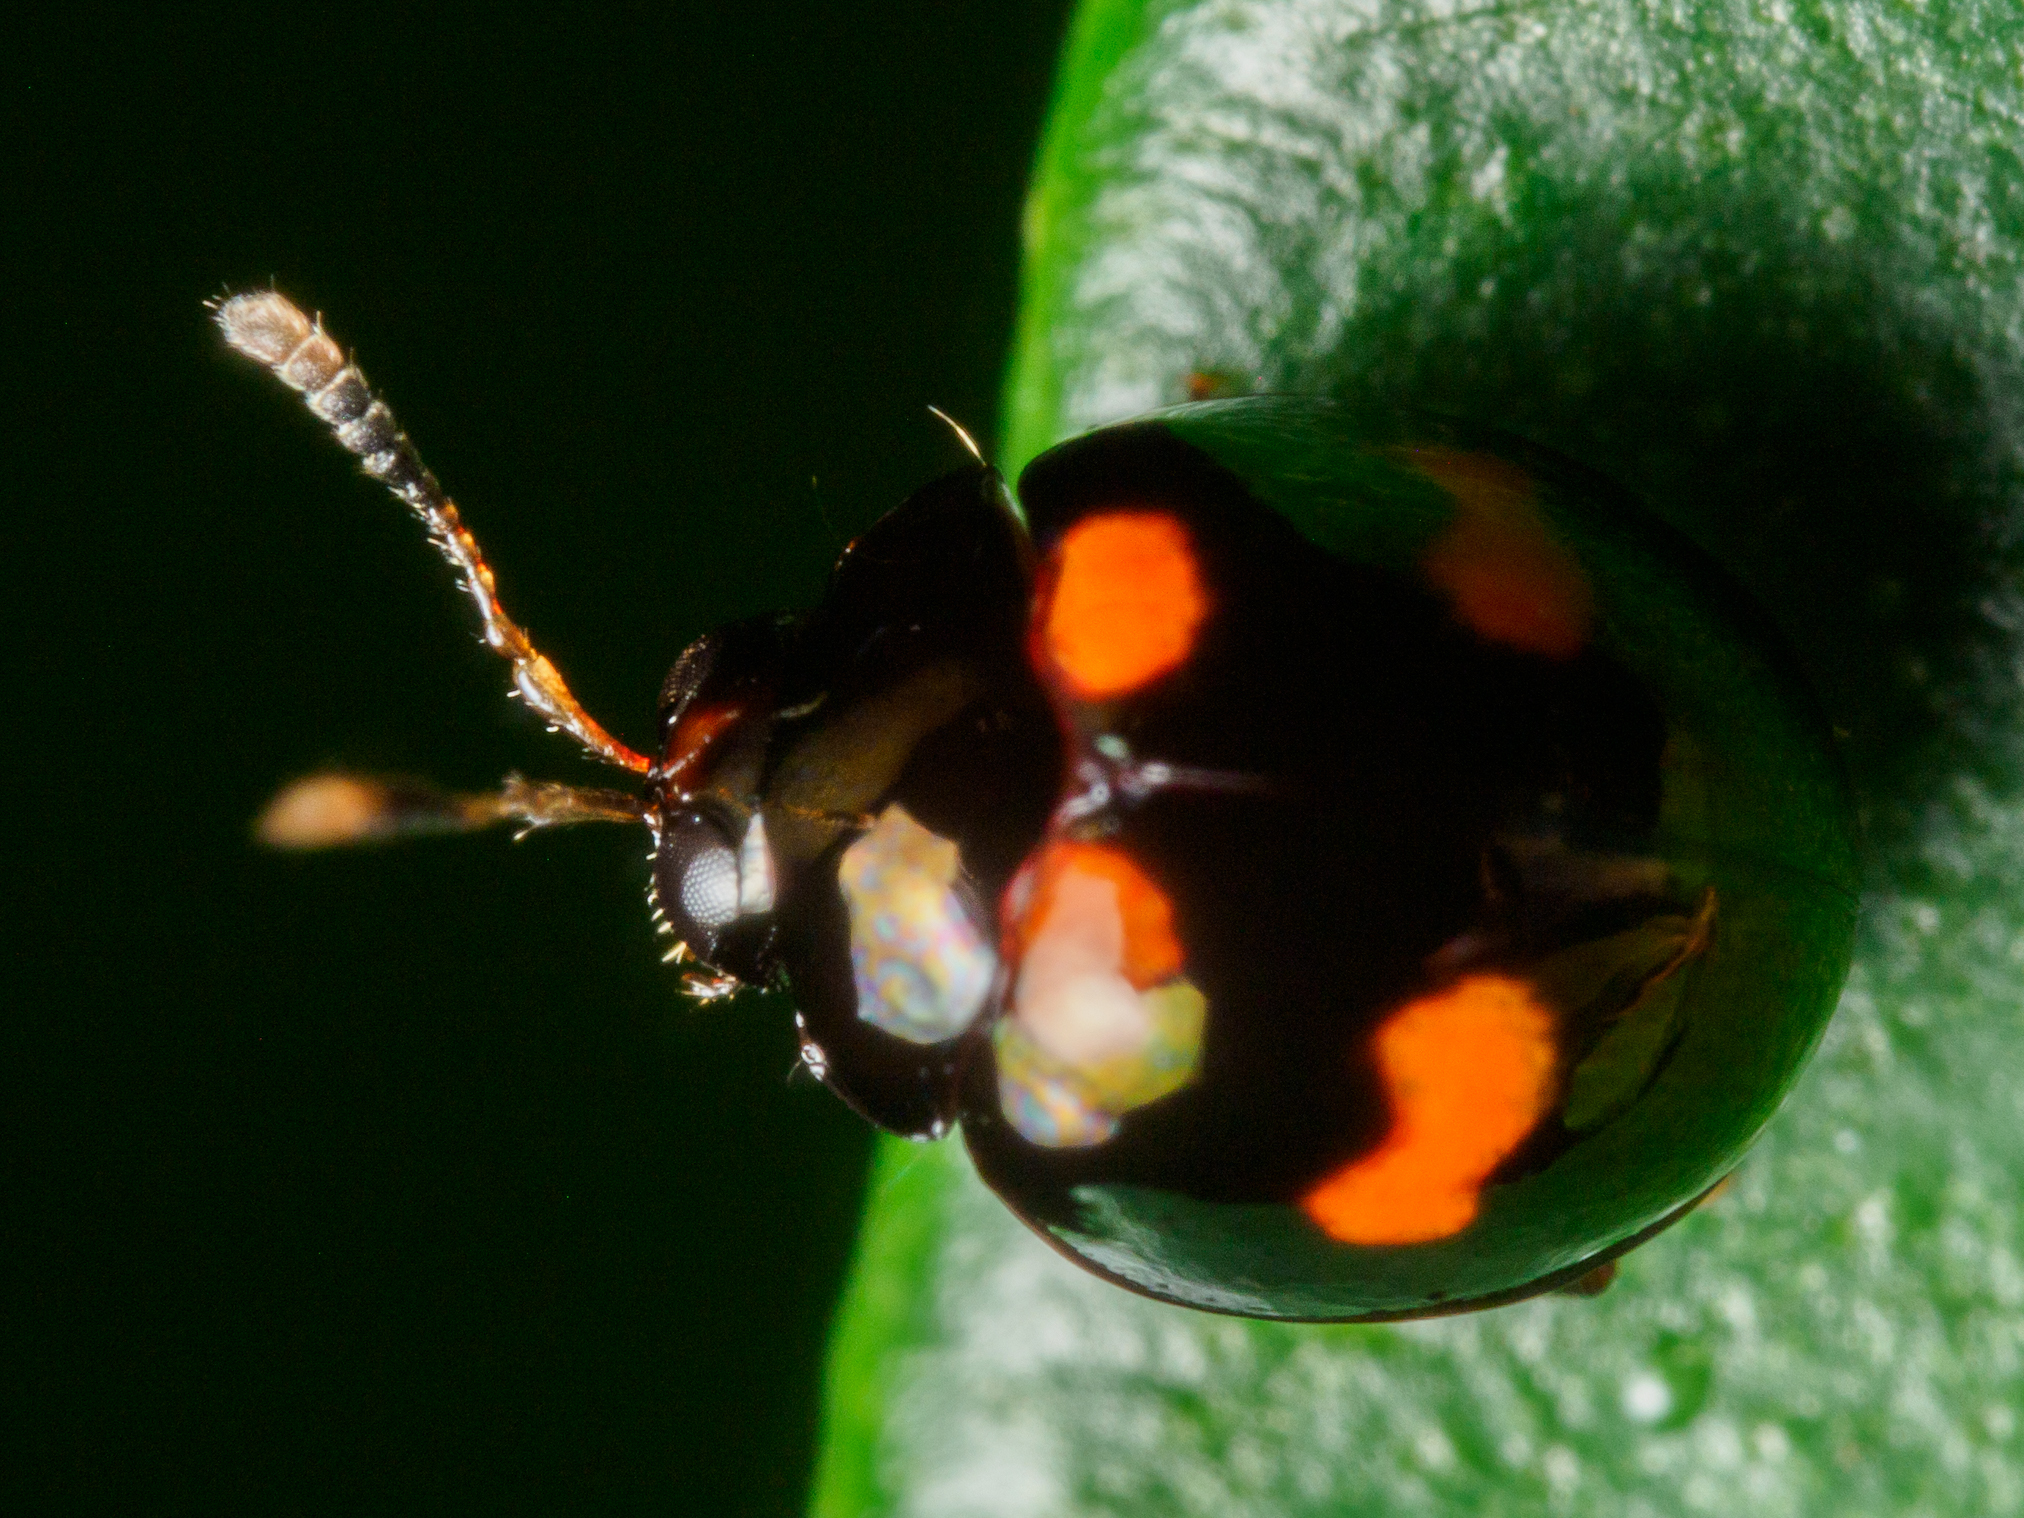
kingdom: Animalia
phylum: Arthropoda
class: Insecta
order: Coleoptera
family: Chrysomelidae
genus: Halticorcus
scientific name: Halticorcus
